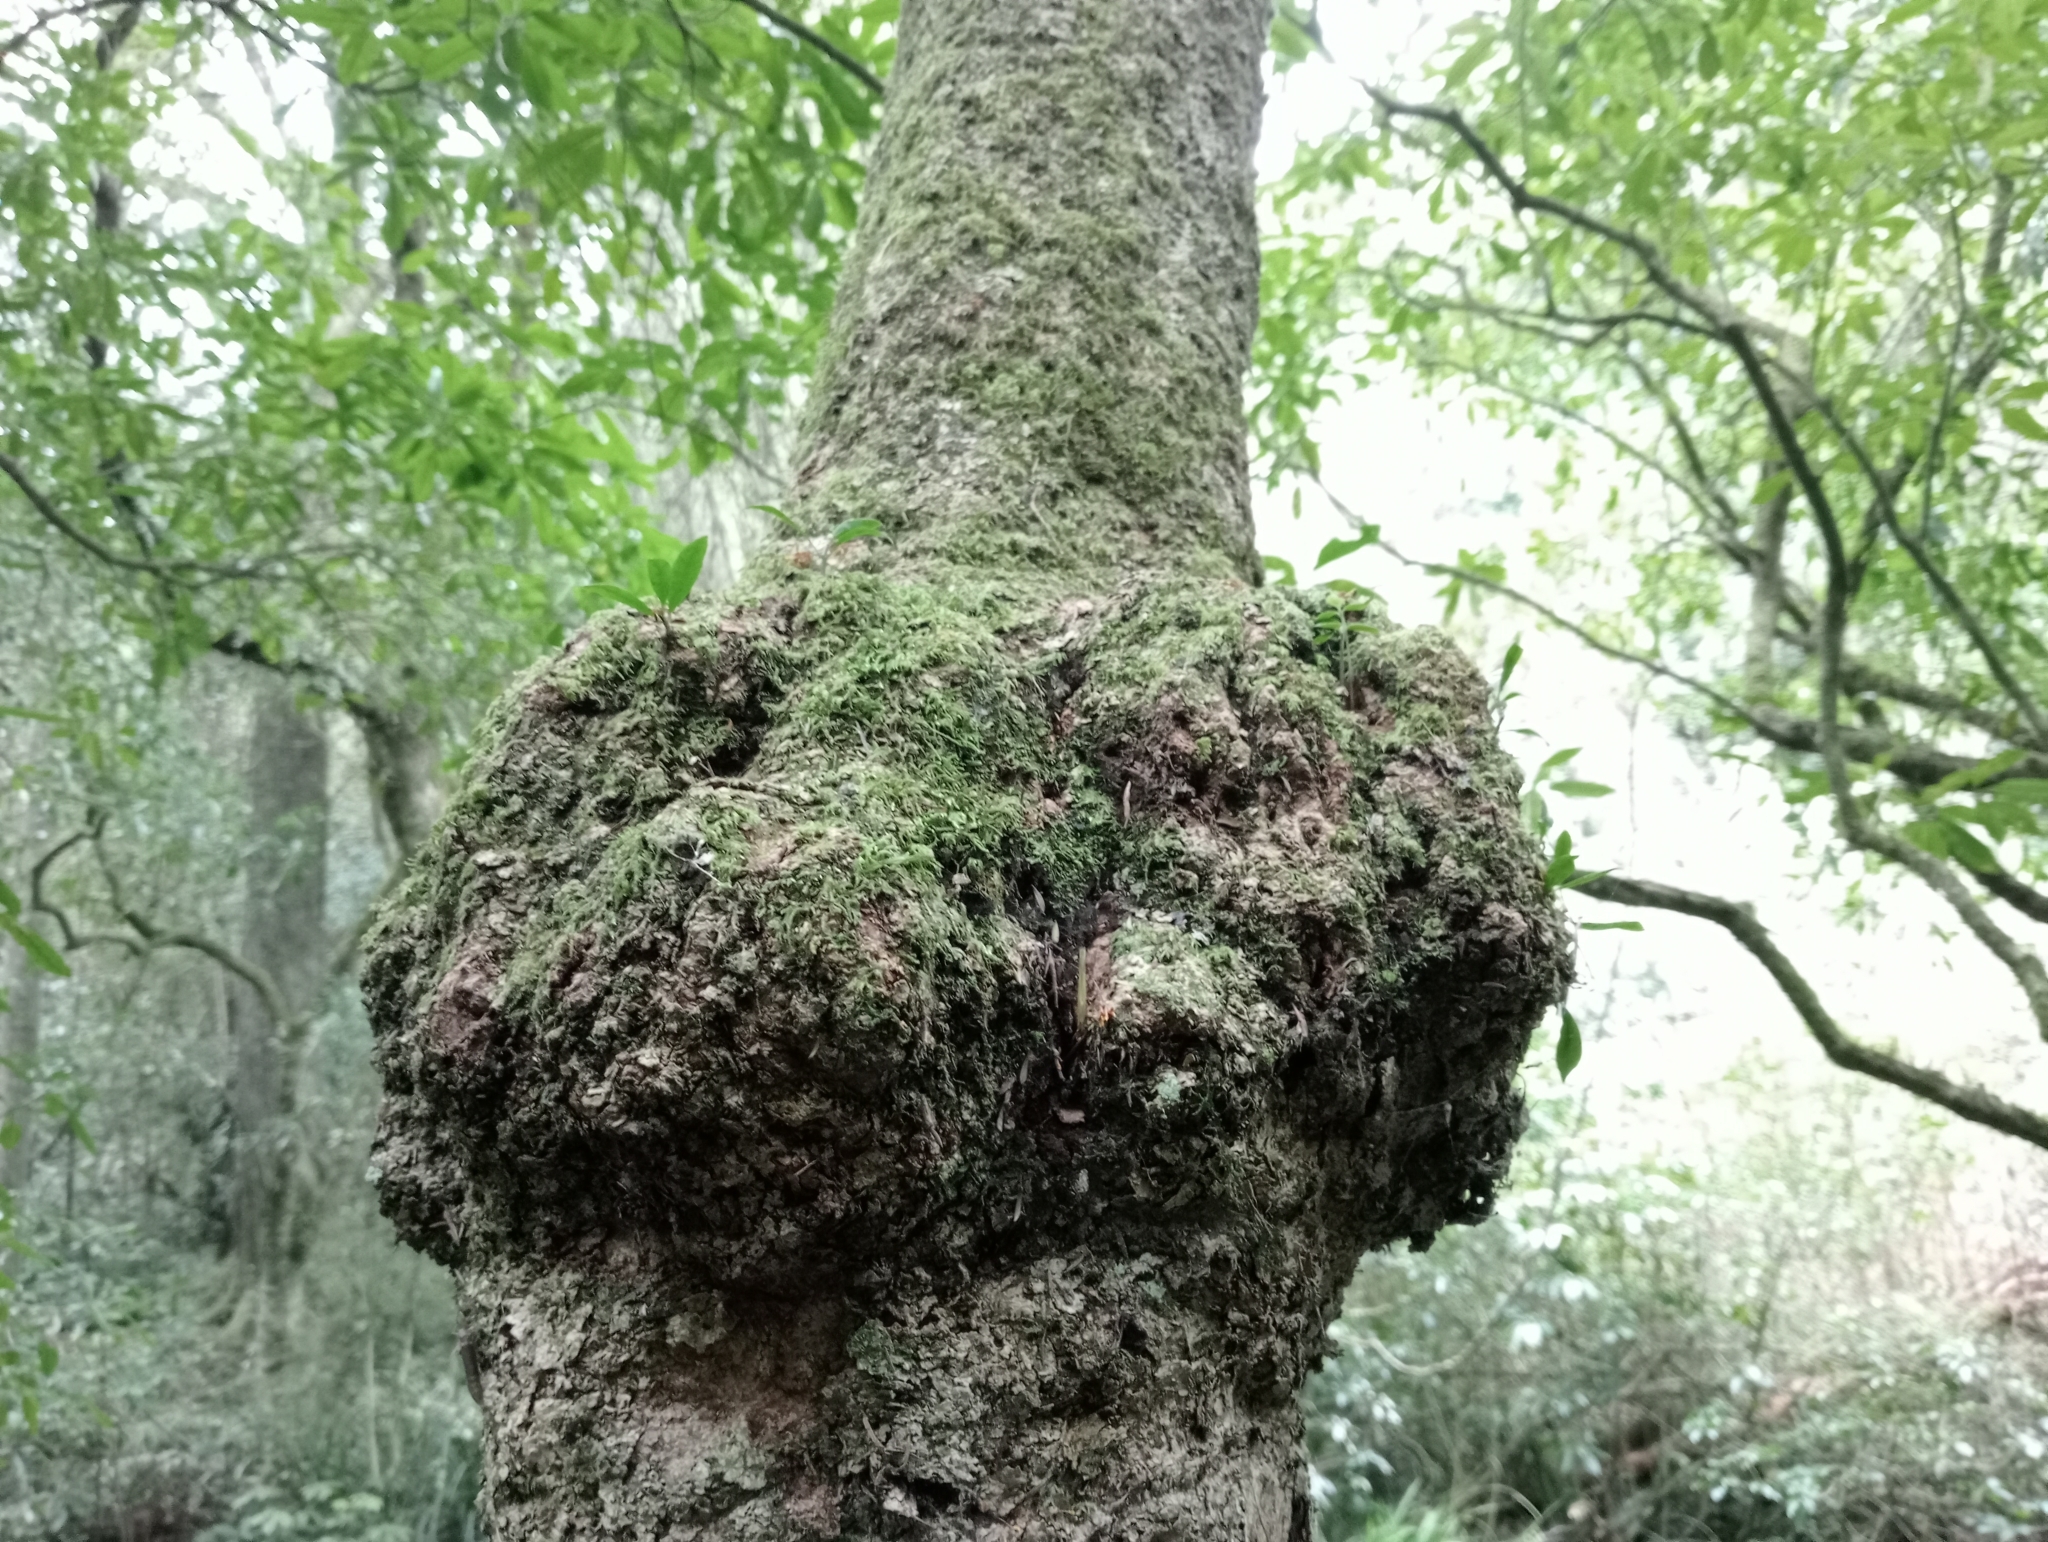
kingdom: Plantae
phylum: Tracheophyta
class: Magnoliopsida
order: Santalales
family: Loranthaceae
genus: Tupeia
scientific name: Tupeia antarctica
